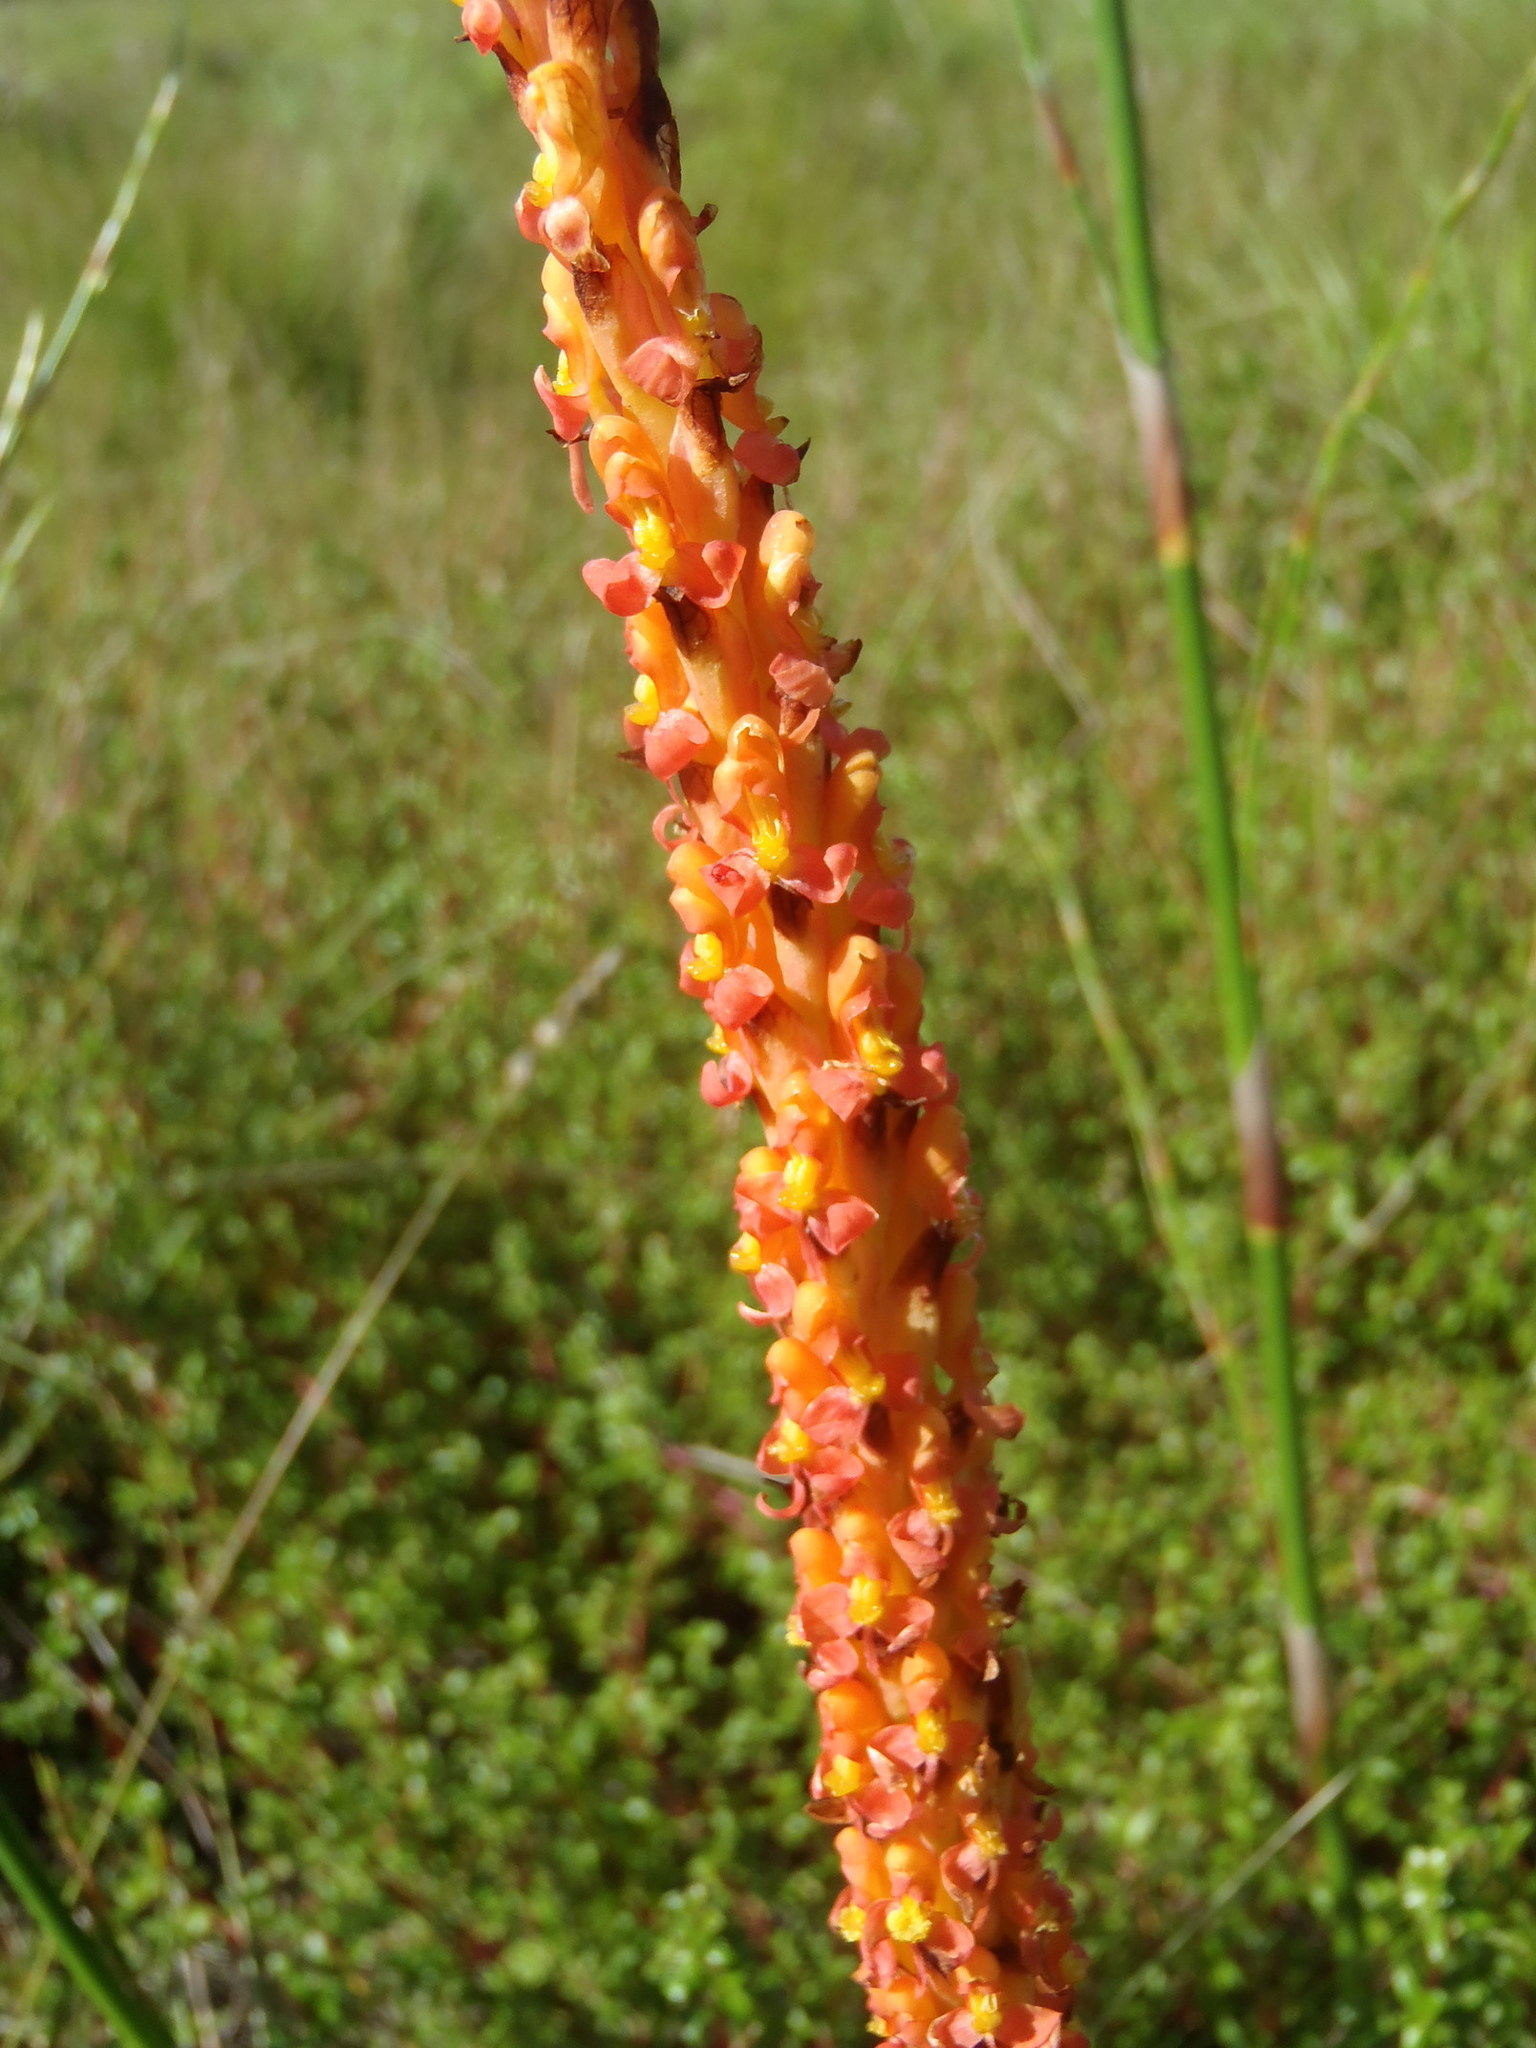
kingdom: Plantae
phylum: Tracheophyta
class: Liliopsida
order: Asparagales
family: Orchidaceae
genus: Disa
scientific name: Disa chrysostachya
